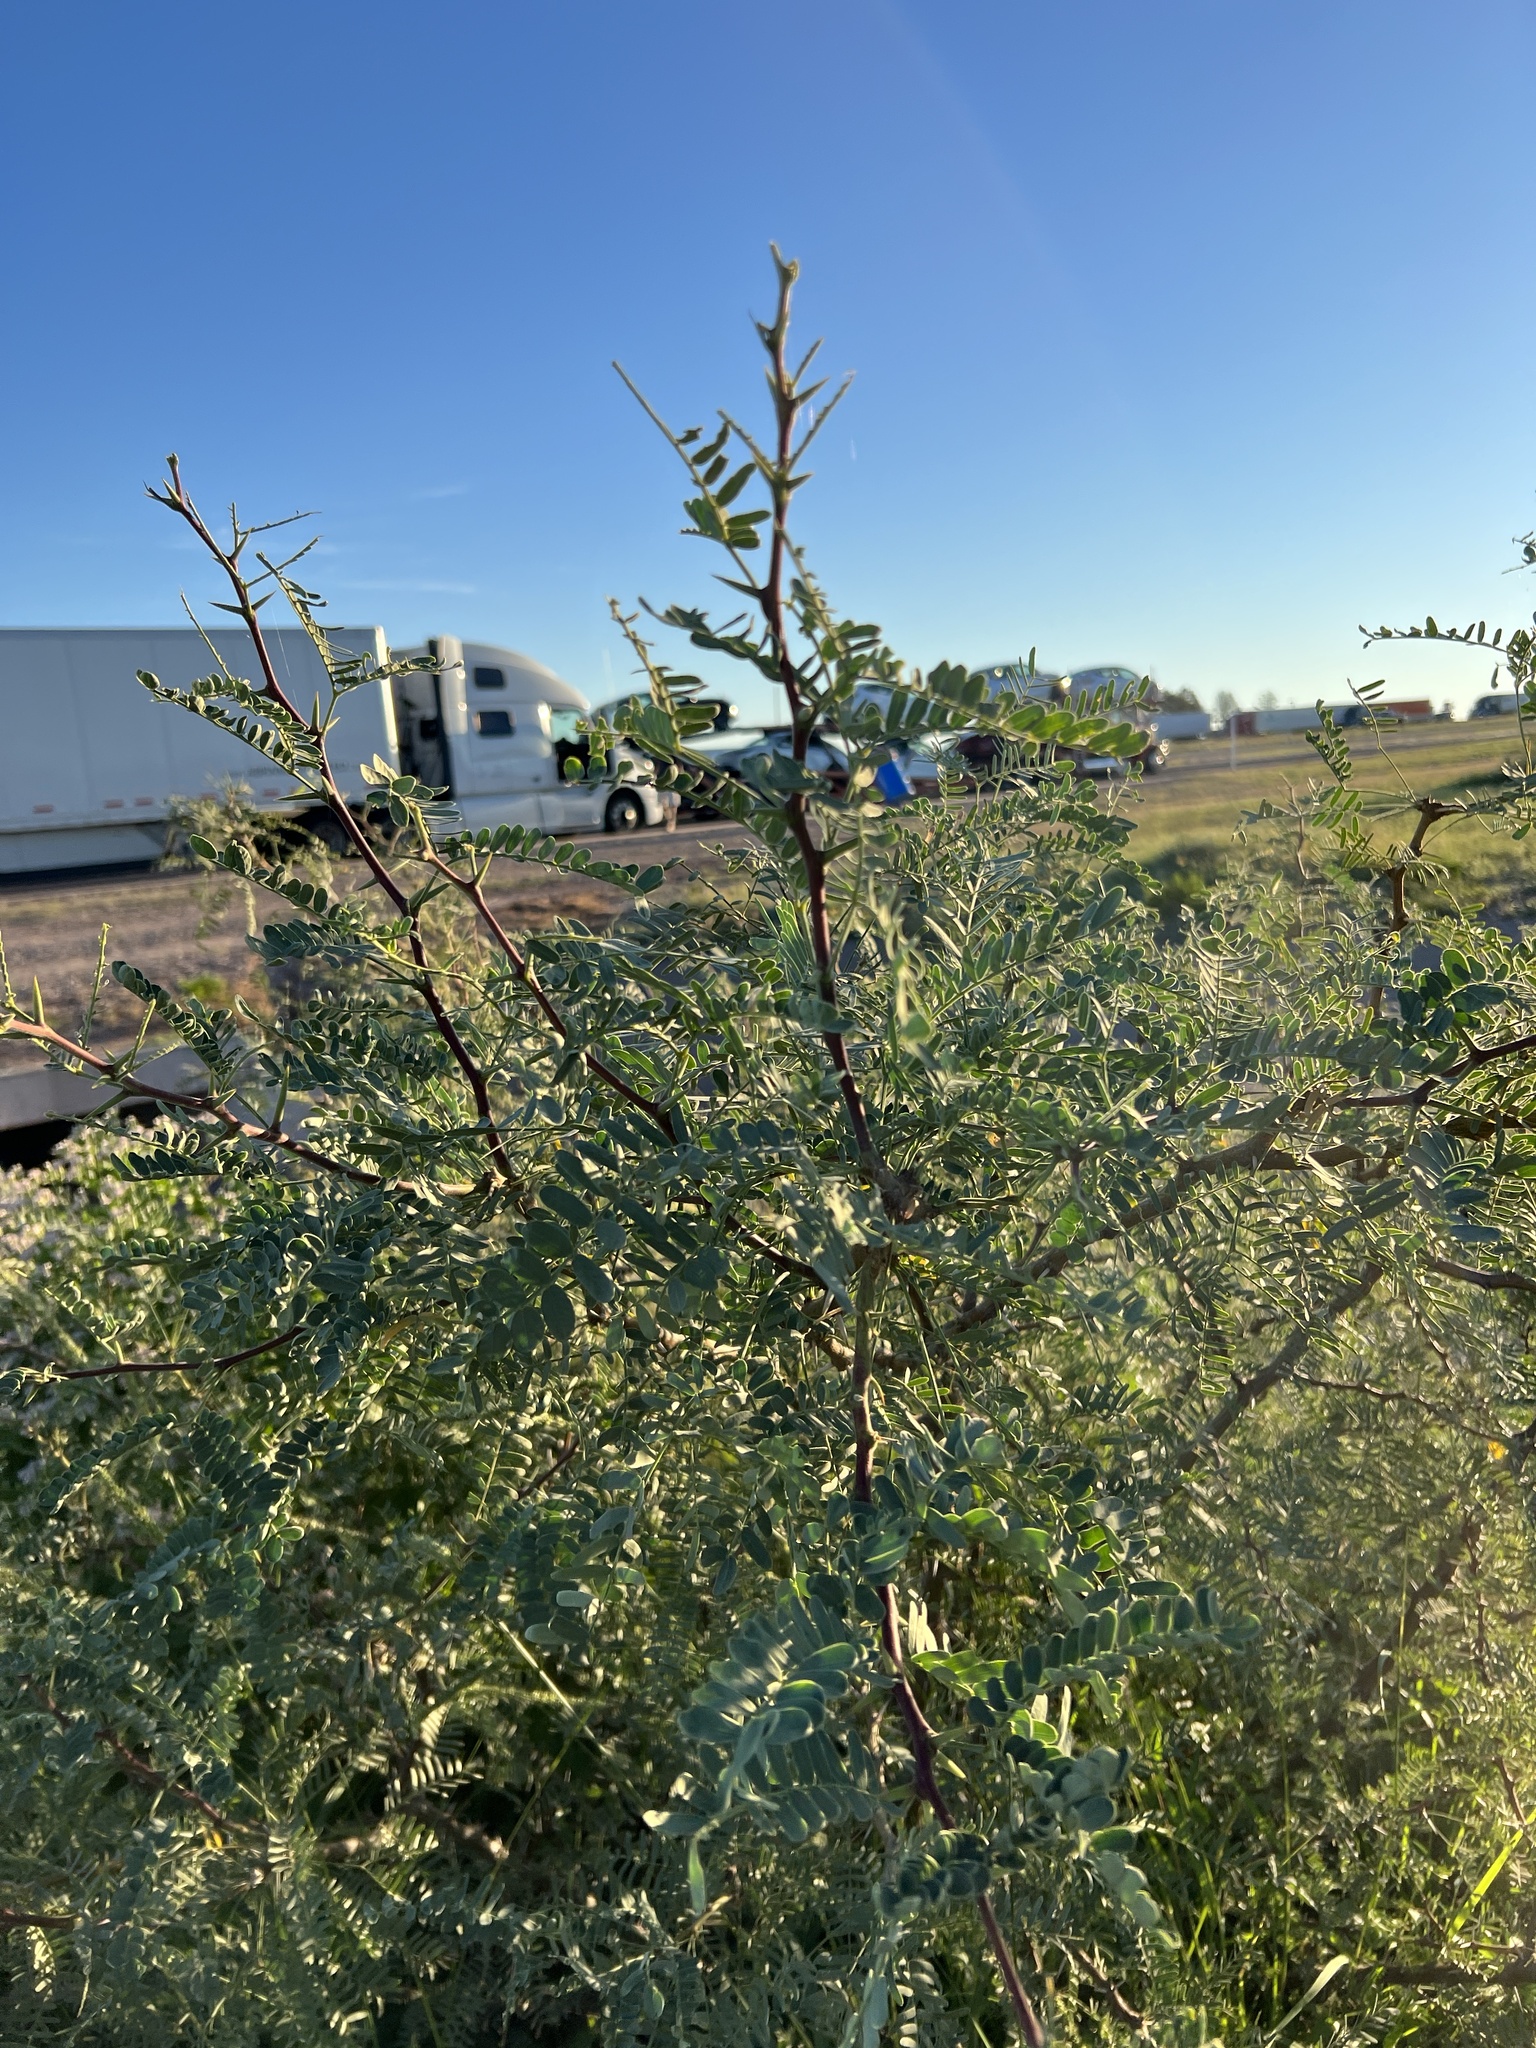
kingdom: Plantae
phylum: Tracheophyta
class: Magnoliopsida
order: Fabales
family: Fabaceae
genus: Prosopis
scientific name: Prosopis glandulosa
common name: Honey mesquite
